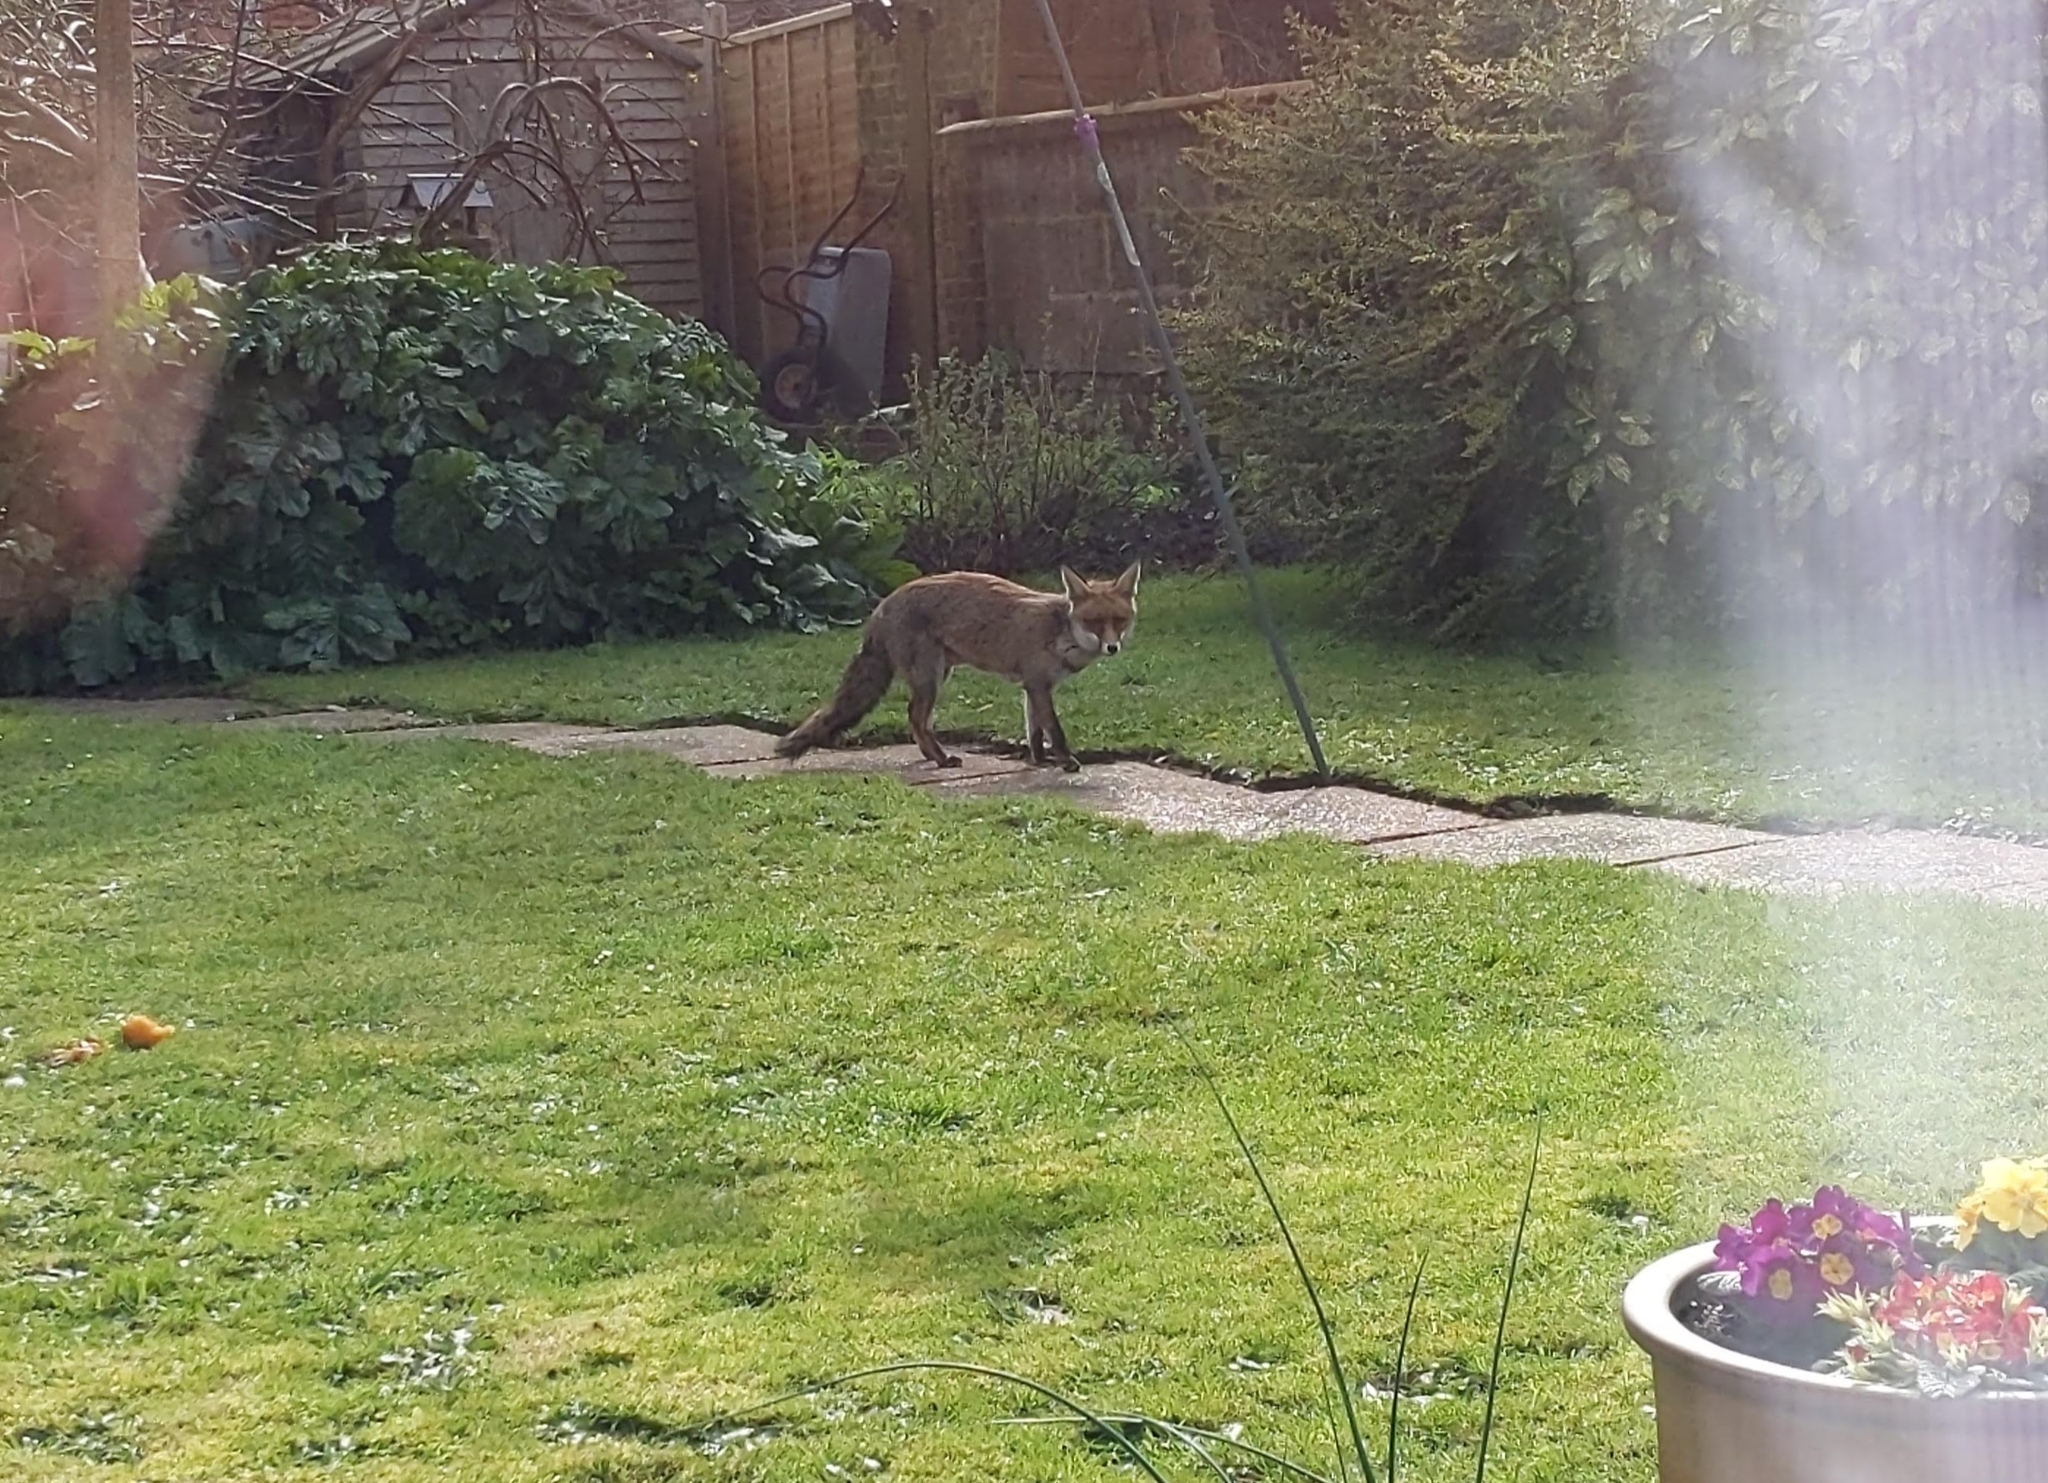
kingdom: Animalia
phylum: Chordata
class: Mammalia
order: Carnivora
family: Canidae
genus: Vulpes
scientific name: Vulpes vulpes
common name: Red fox
